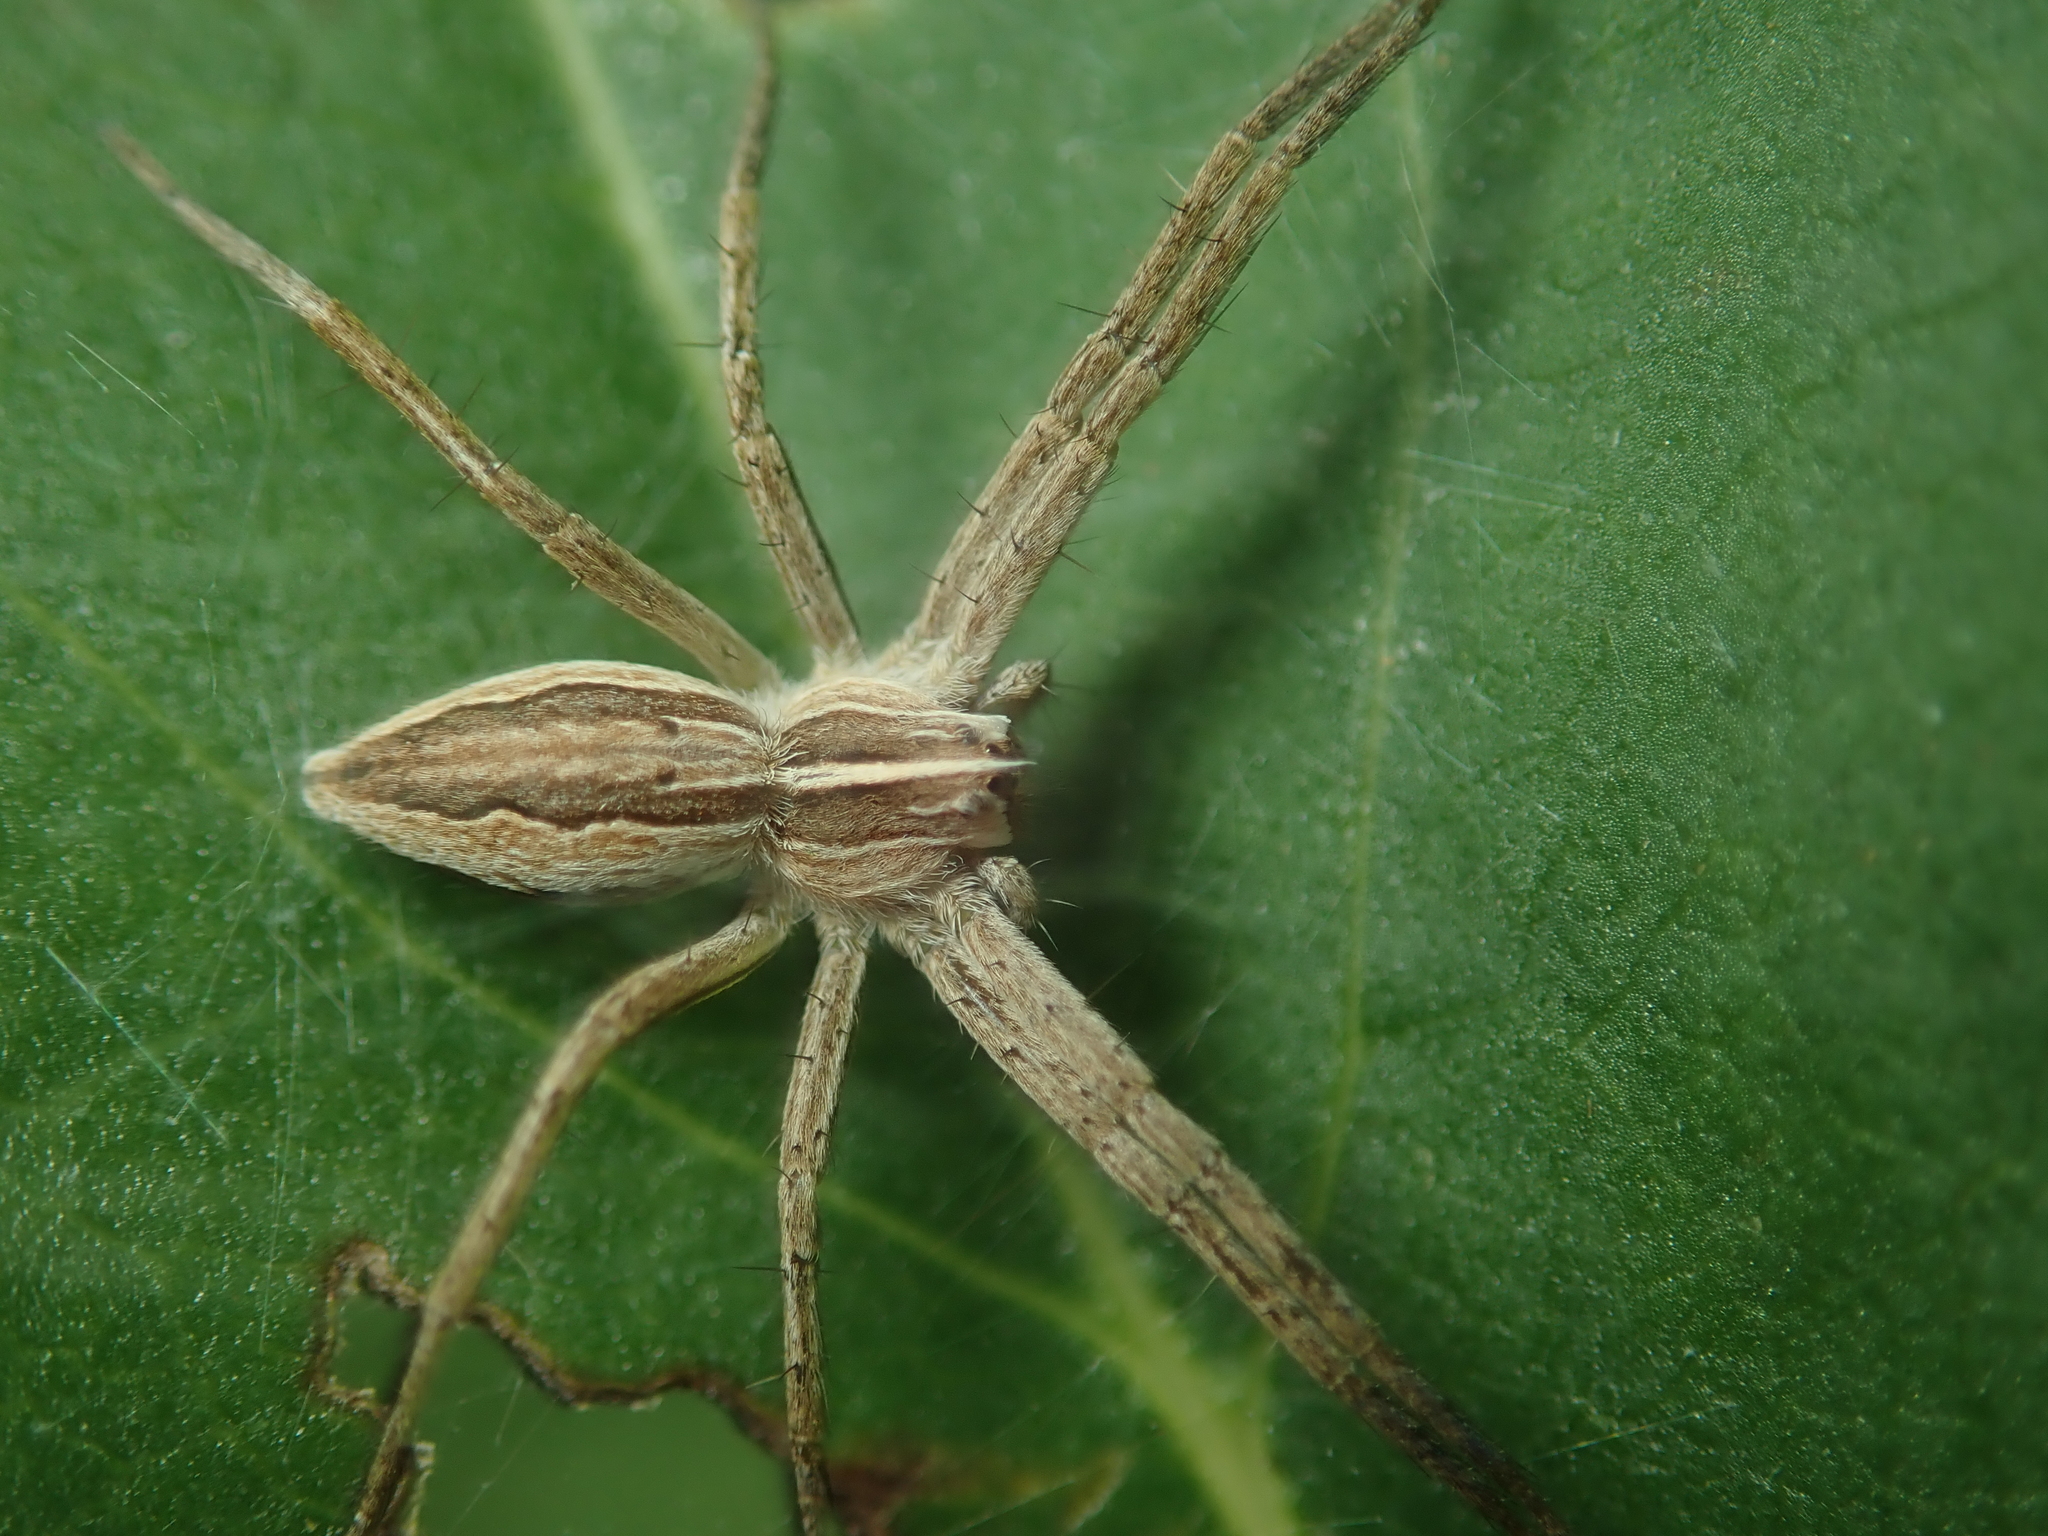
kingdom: Animalia
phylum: Arthropoda
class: Arachnida
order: Araneae
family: Pisauridae
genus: Pisaura
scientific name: Pisaura mirabilis
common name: Tent spider
